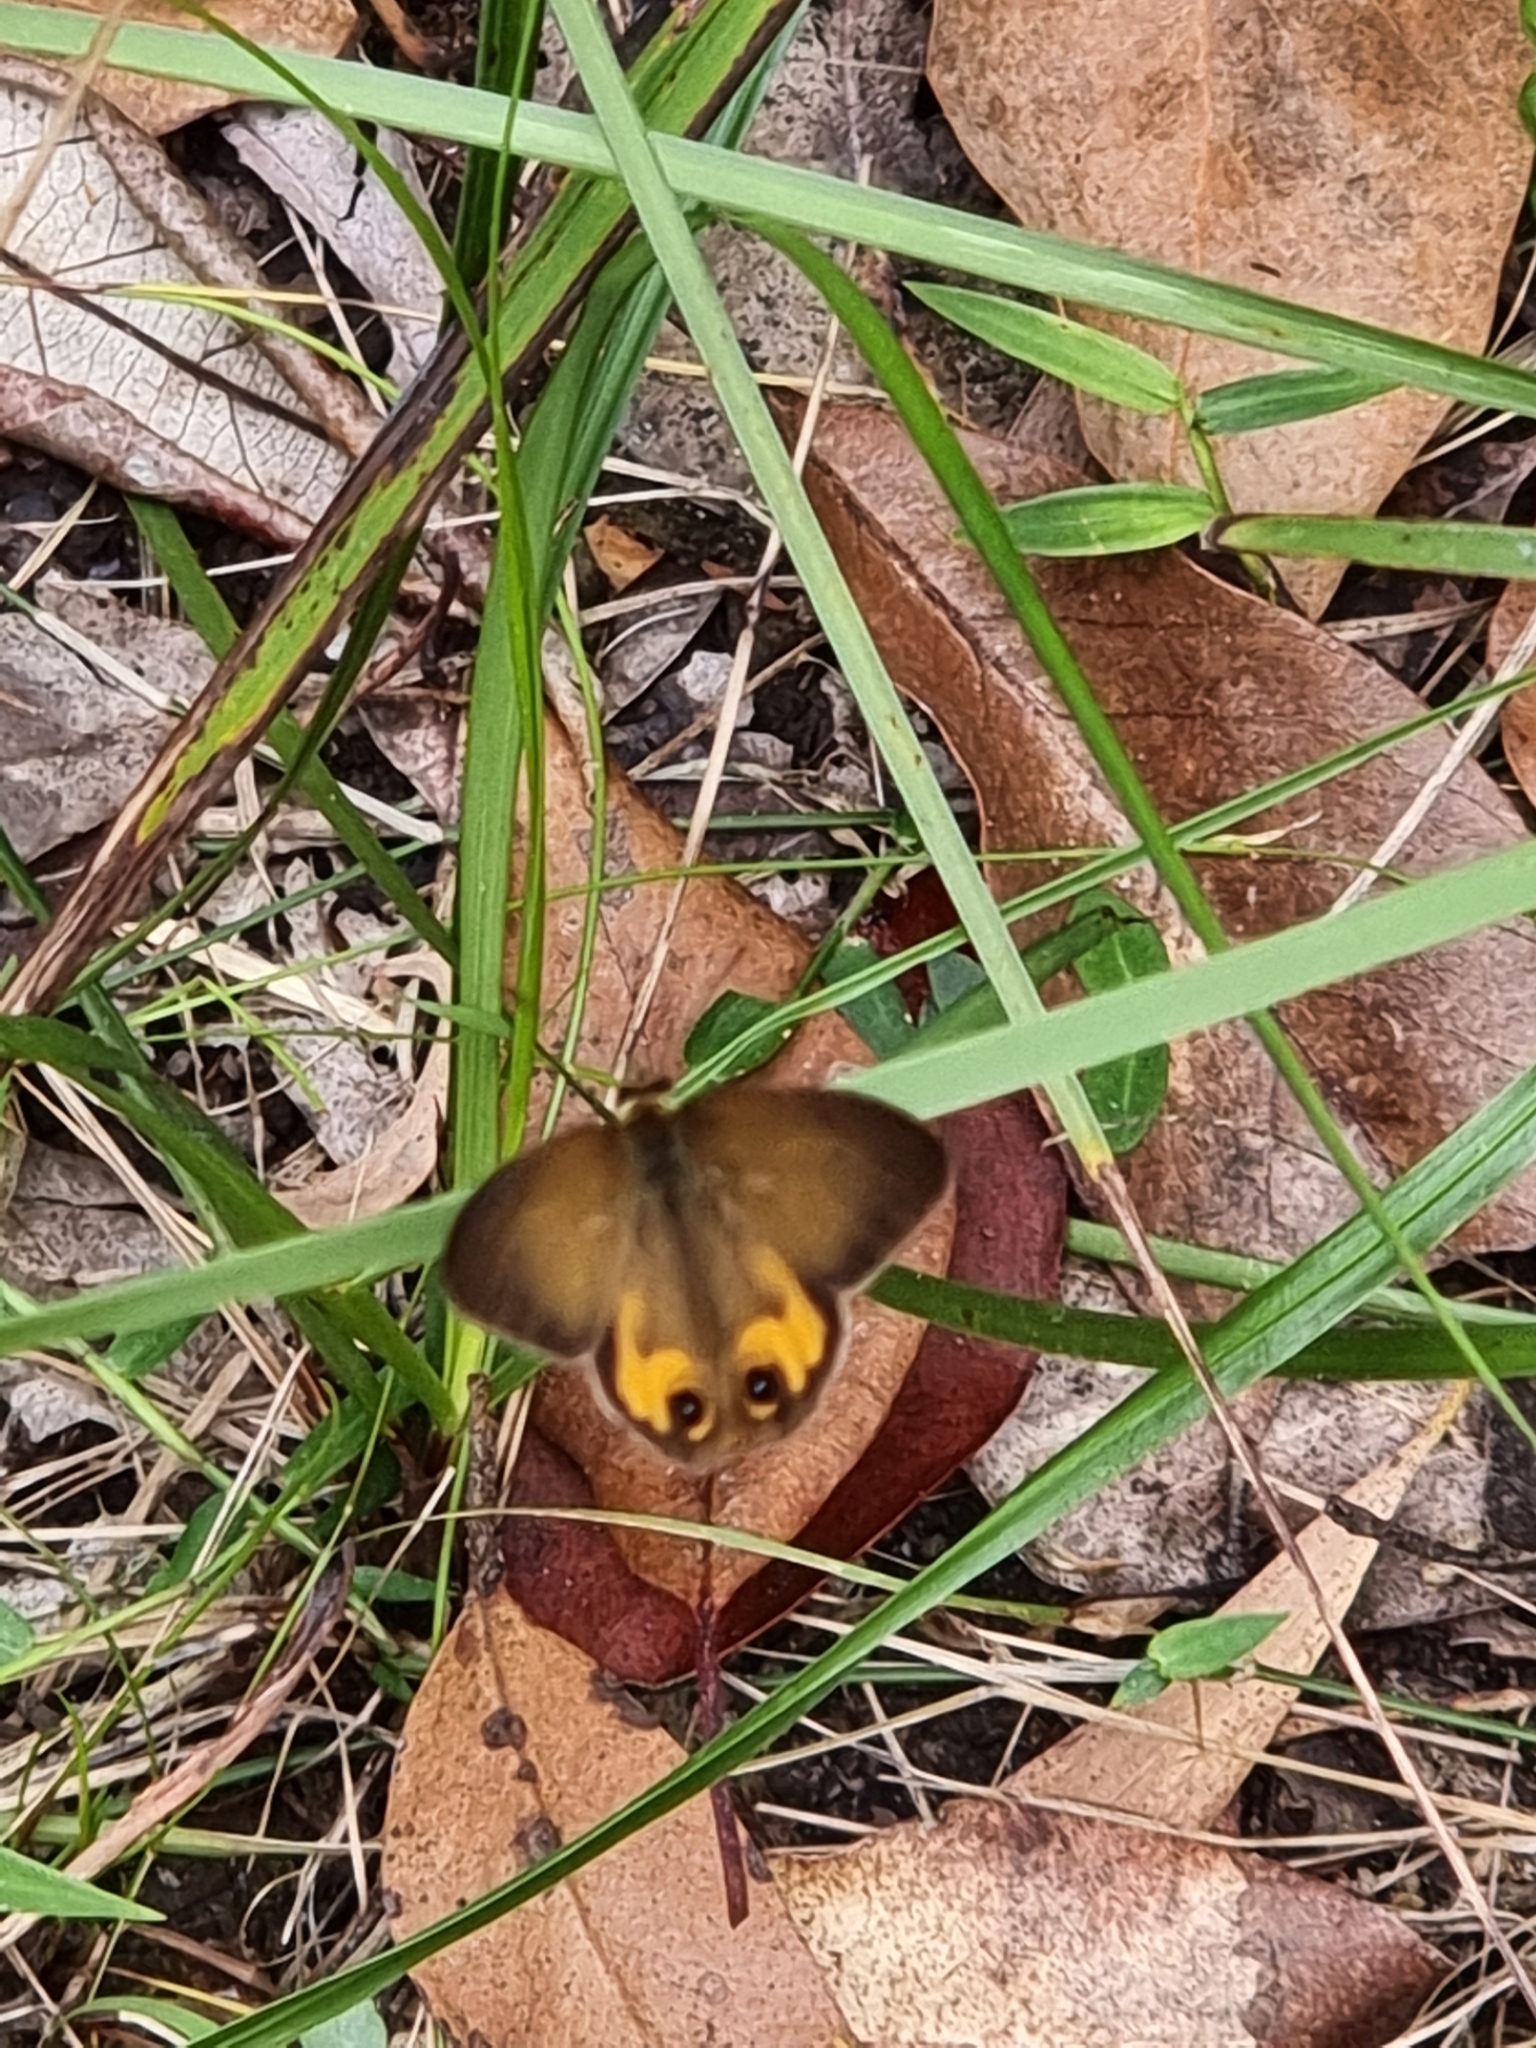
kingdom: Animalia
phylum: Arthropoda
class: Insecta
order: Lepidoptera
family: Nymphalidae
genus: Hypocysta
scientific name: Hypocysta metirius
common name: Brown ringlet
